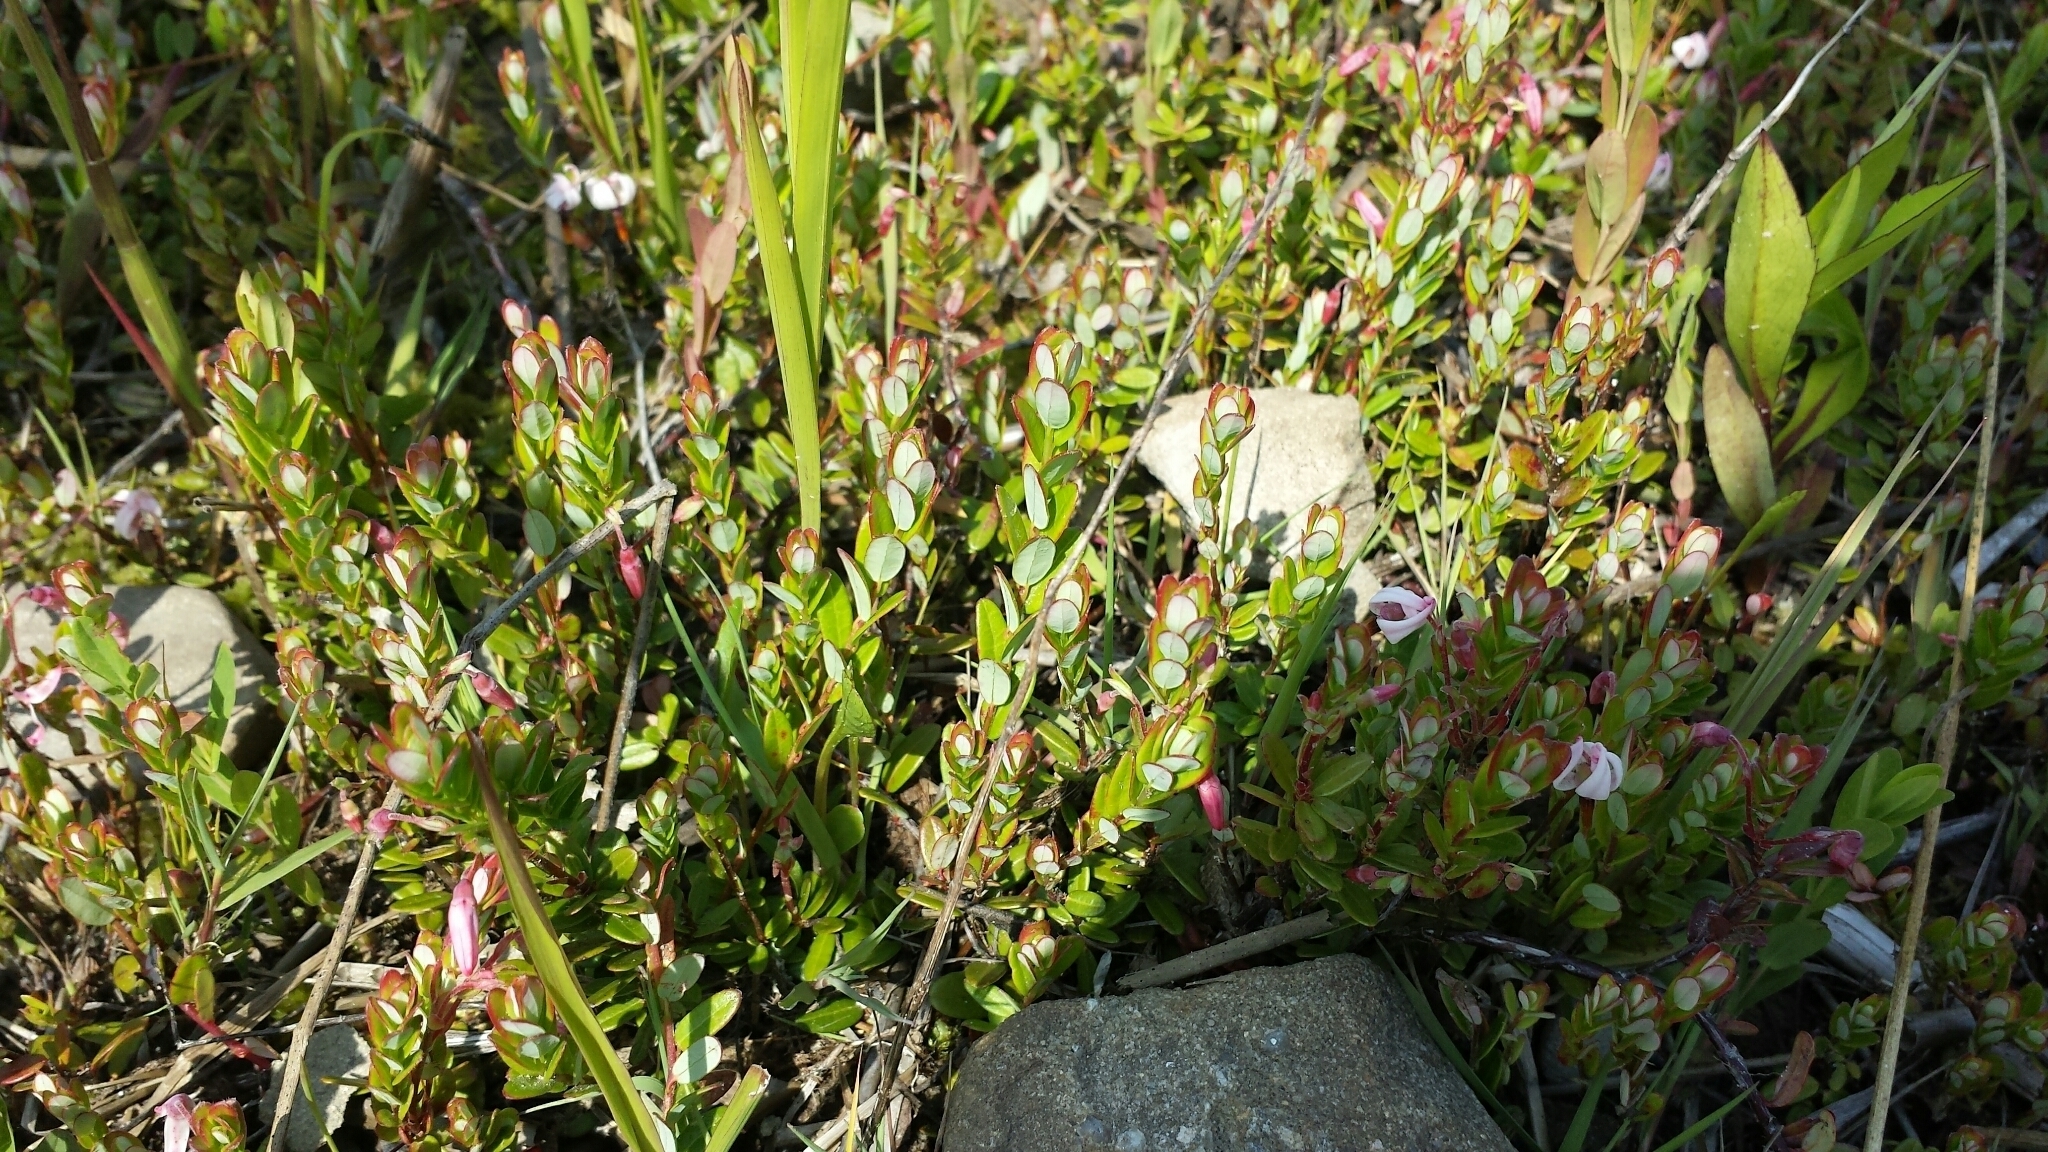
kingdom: Plantae
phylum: Tracheophyta
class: Magnoliopsida
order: Ericales
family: Ericaceae
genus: Vaccinium
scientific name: Vaccinium macrocarpon
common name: American cranberry
